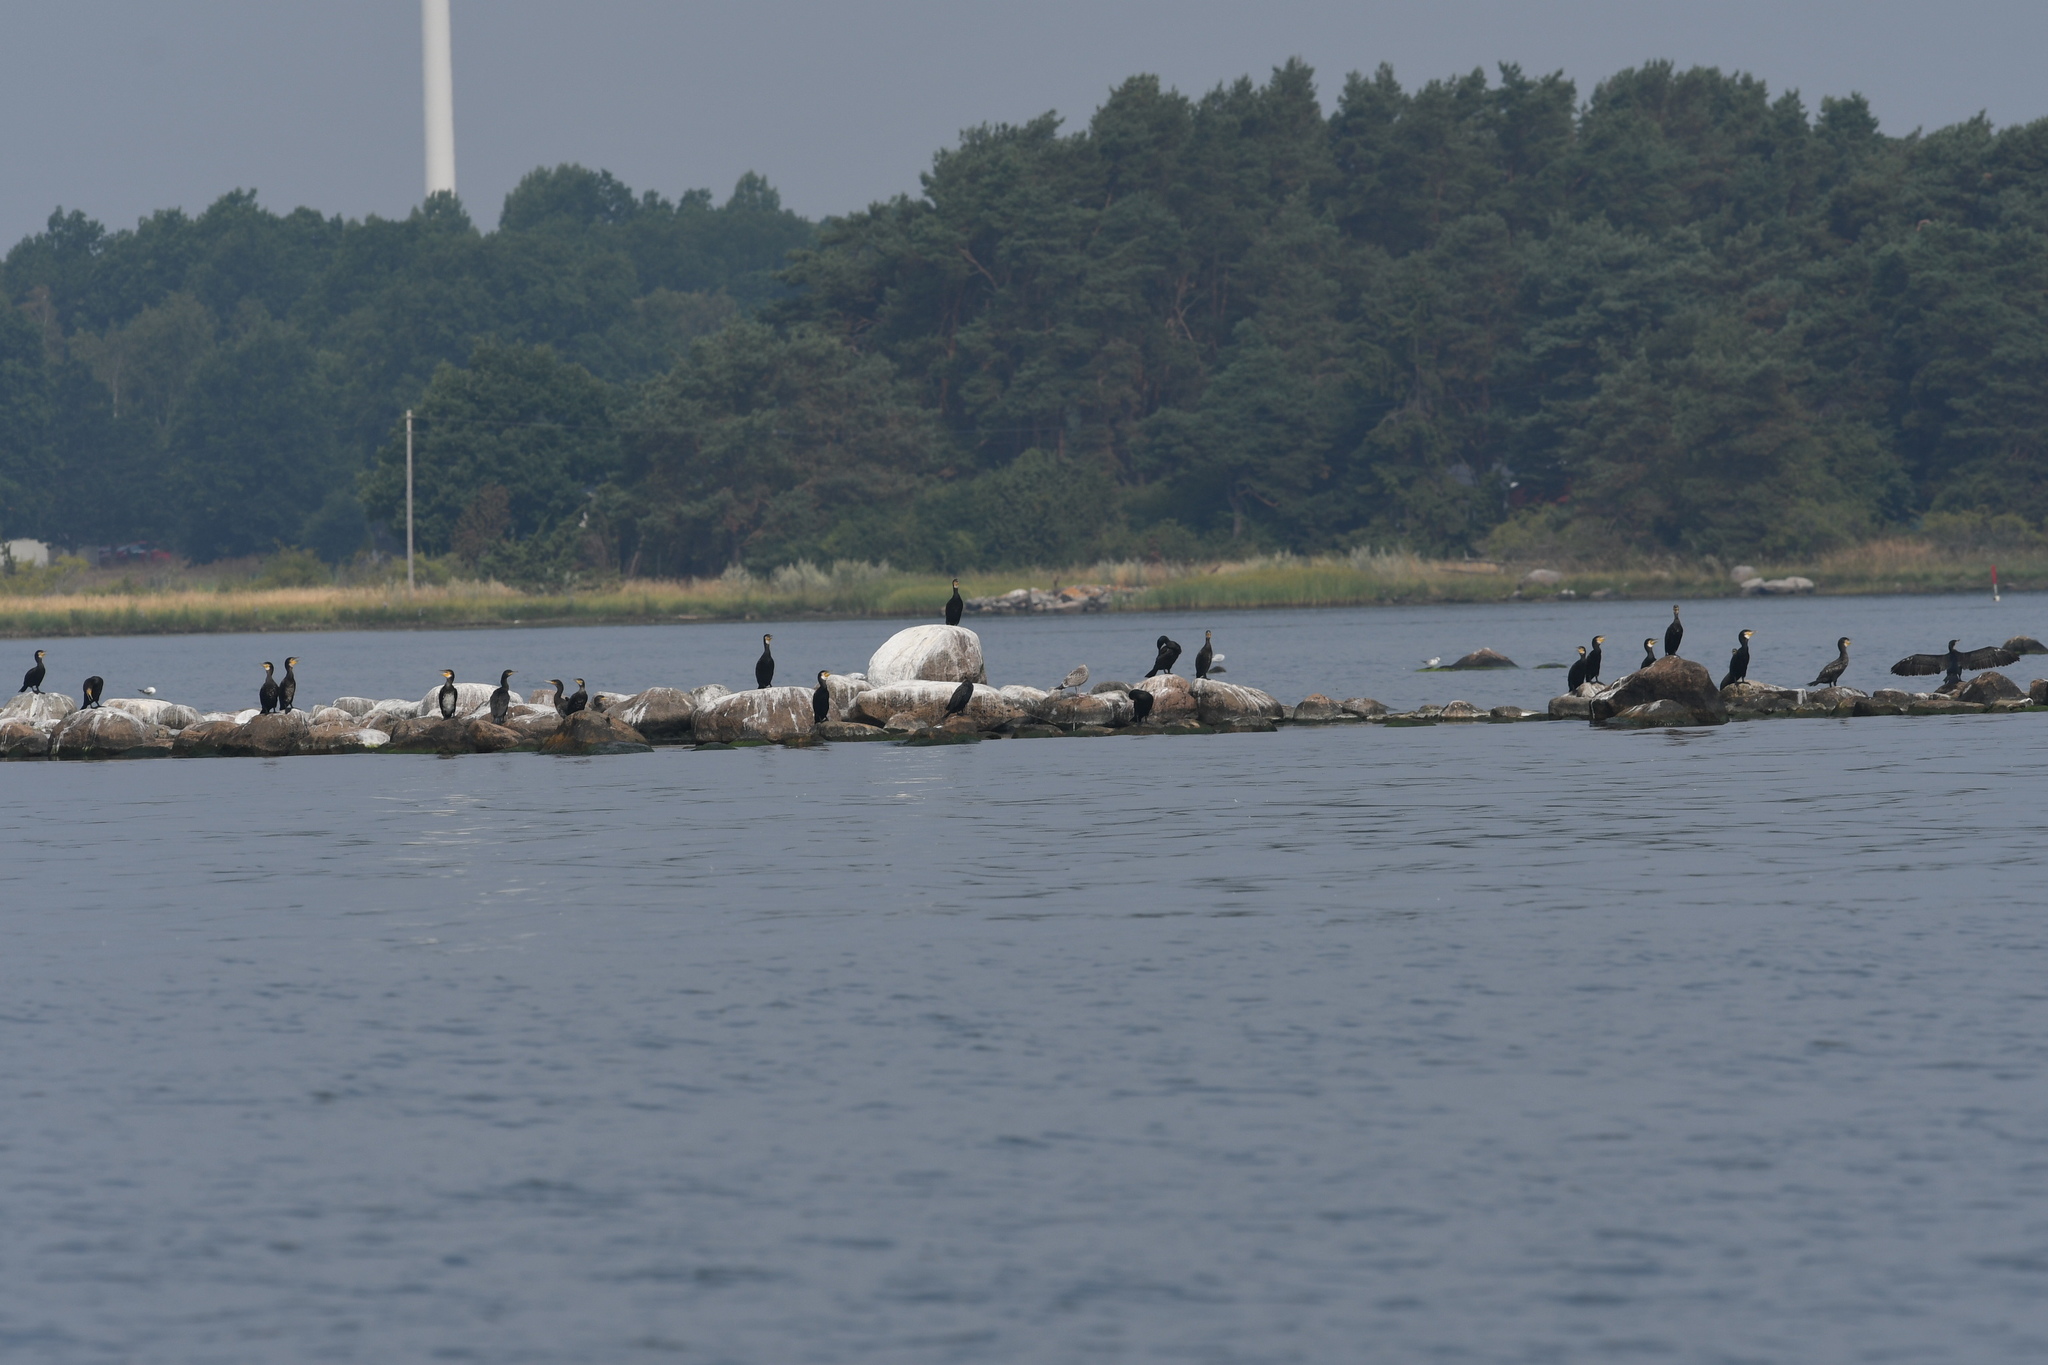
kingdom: Animalia
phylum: Chordata
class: Aves
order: Suliformes
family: Phalacrocoracidae
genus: Phalacrocorax
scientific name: Phalacrocorax carbo
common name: Great cormorant
